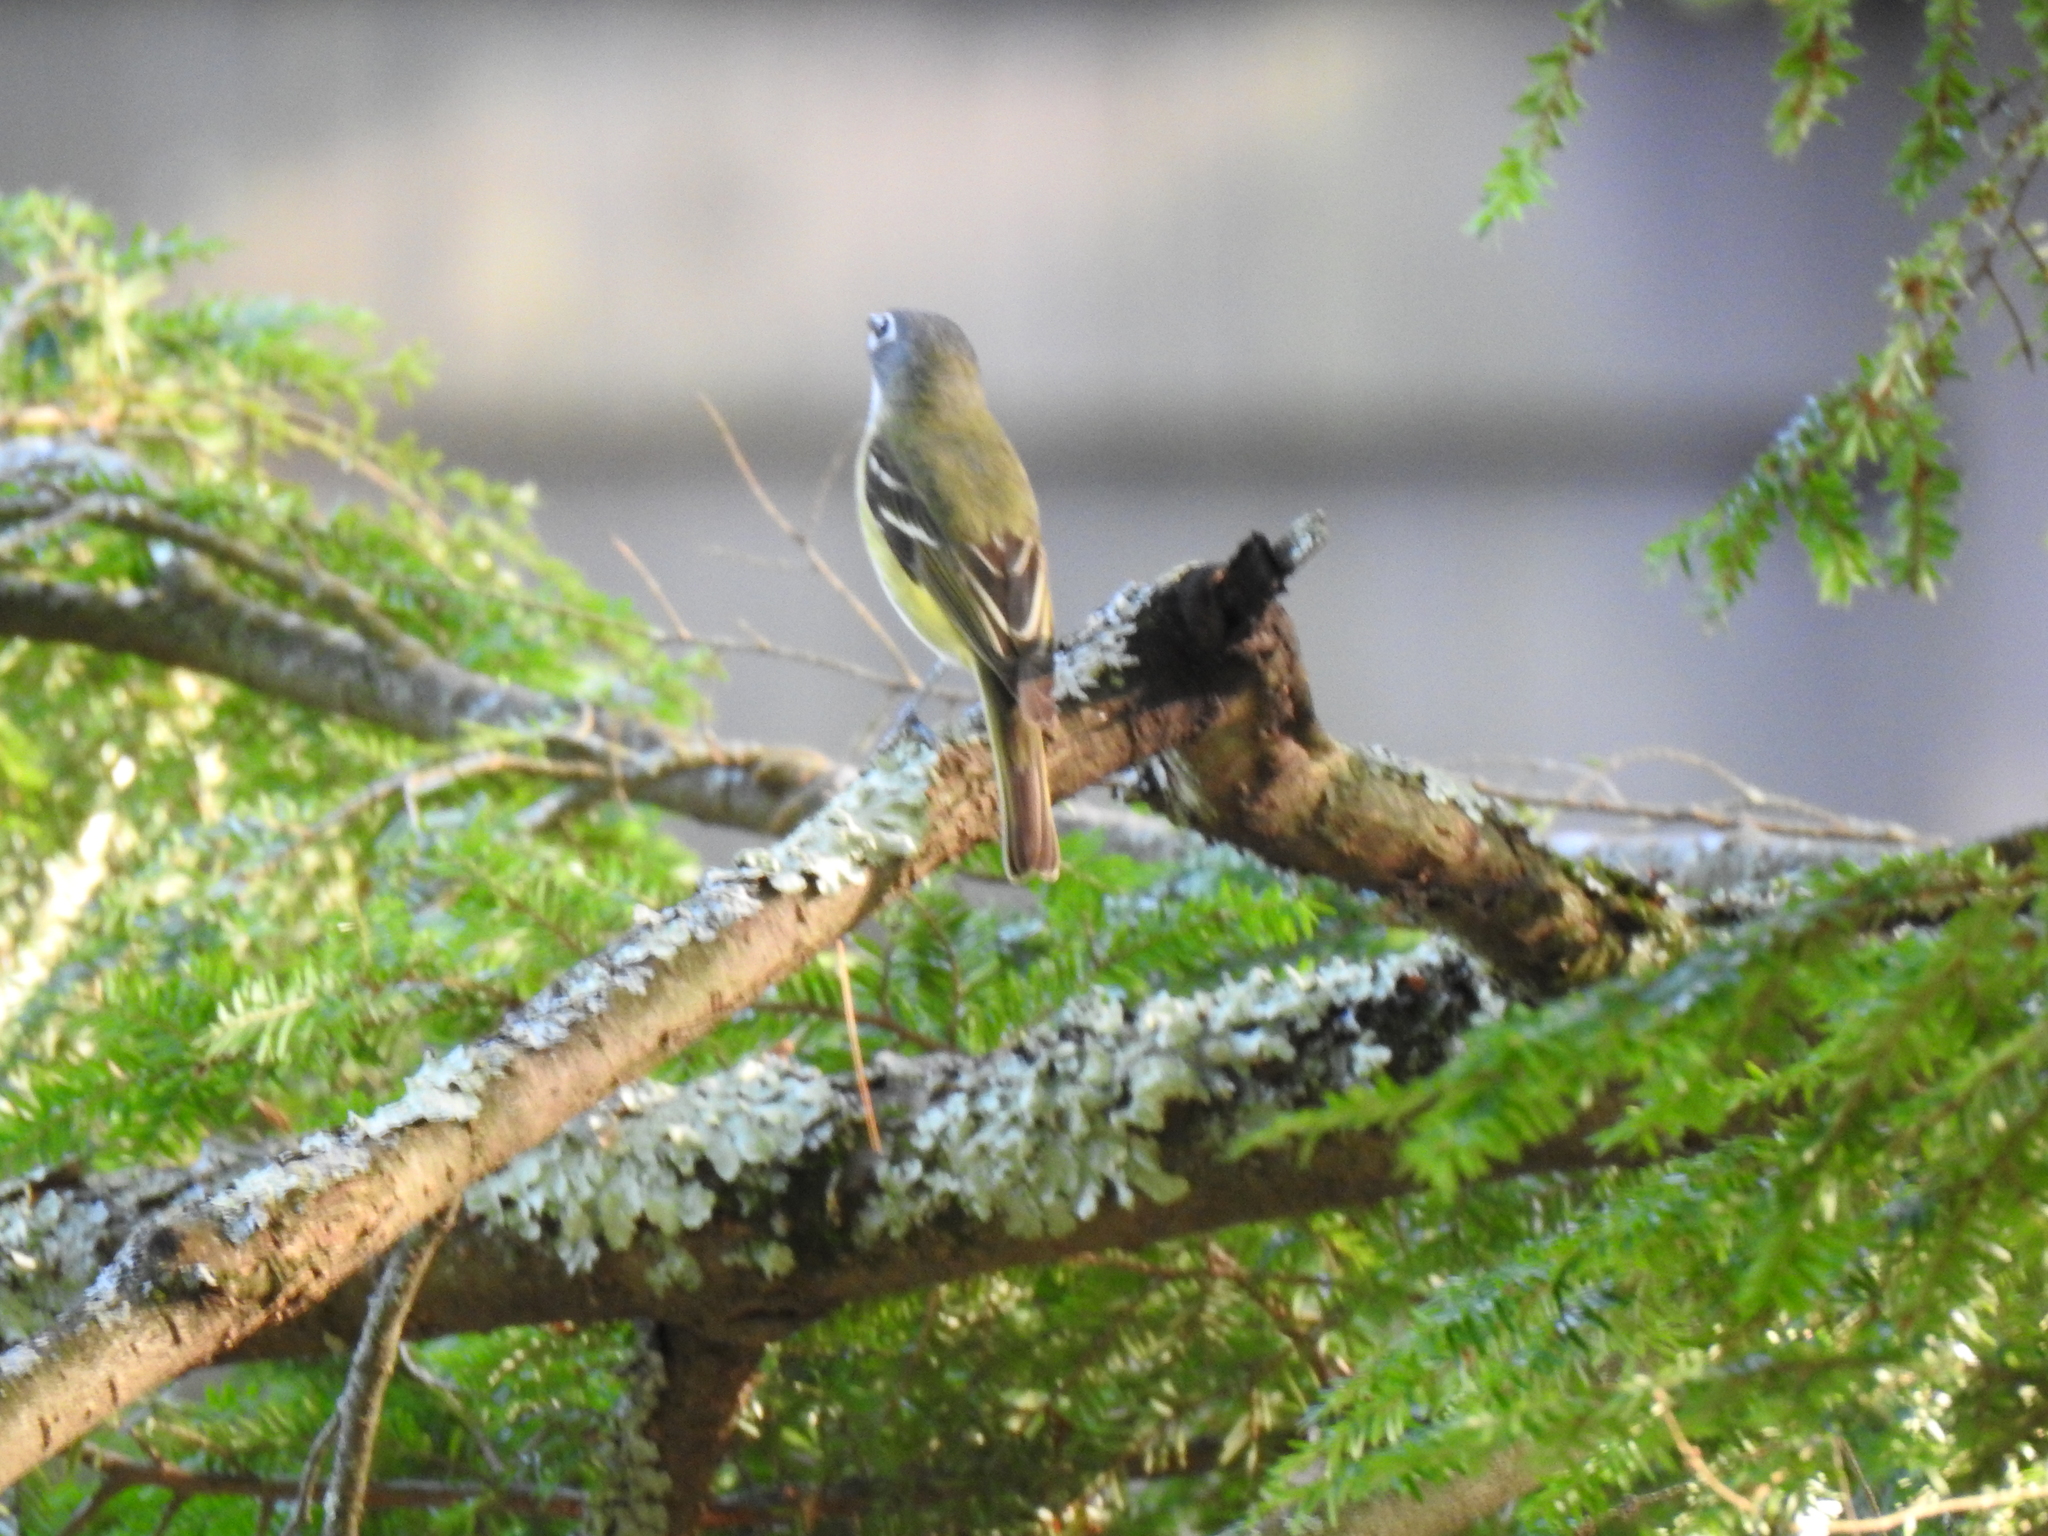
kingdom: Animalia
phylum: Chordata
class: Aves
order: Passeriformes
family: Vireonidae
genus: Vireo
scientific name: Vireo solitarius
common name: Blue-headed vireo
